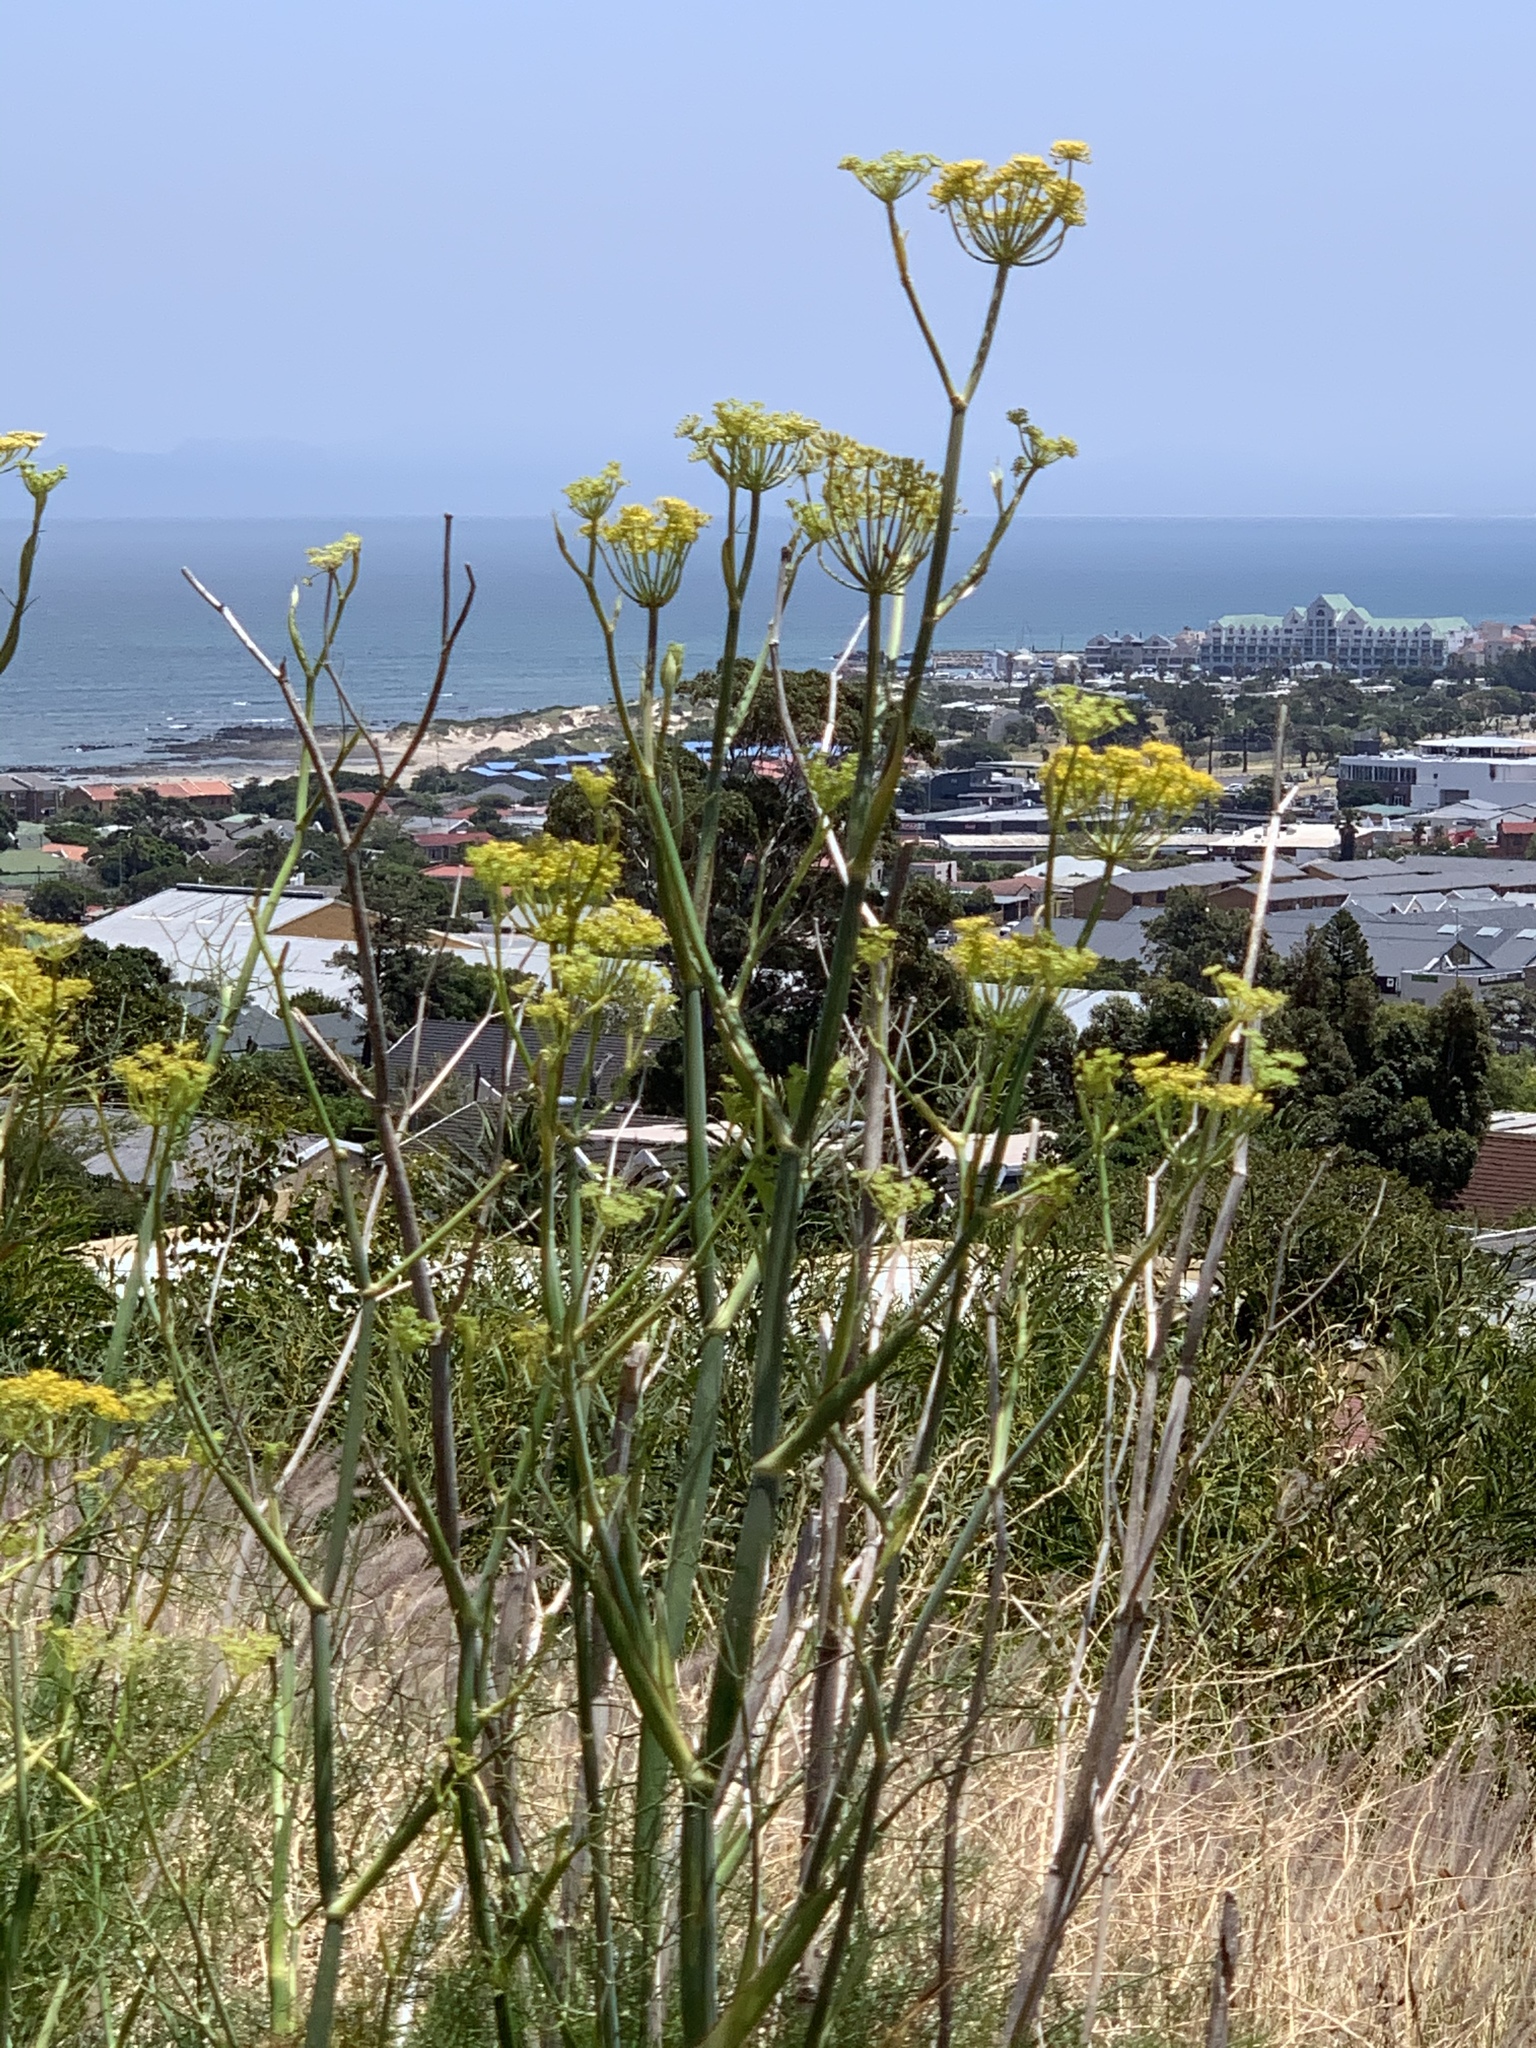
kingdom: Plantae
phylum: Tracheophyta
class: Magnoliopsida
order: Apiales
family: Apiaceae
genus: Foeniculum
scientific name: Foeniculum vulgare
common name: Fennel
